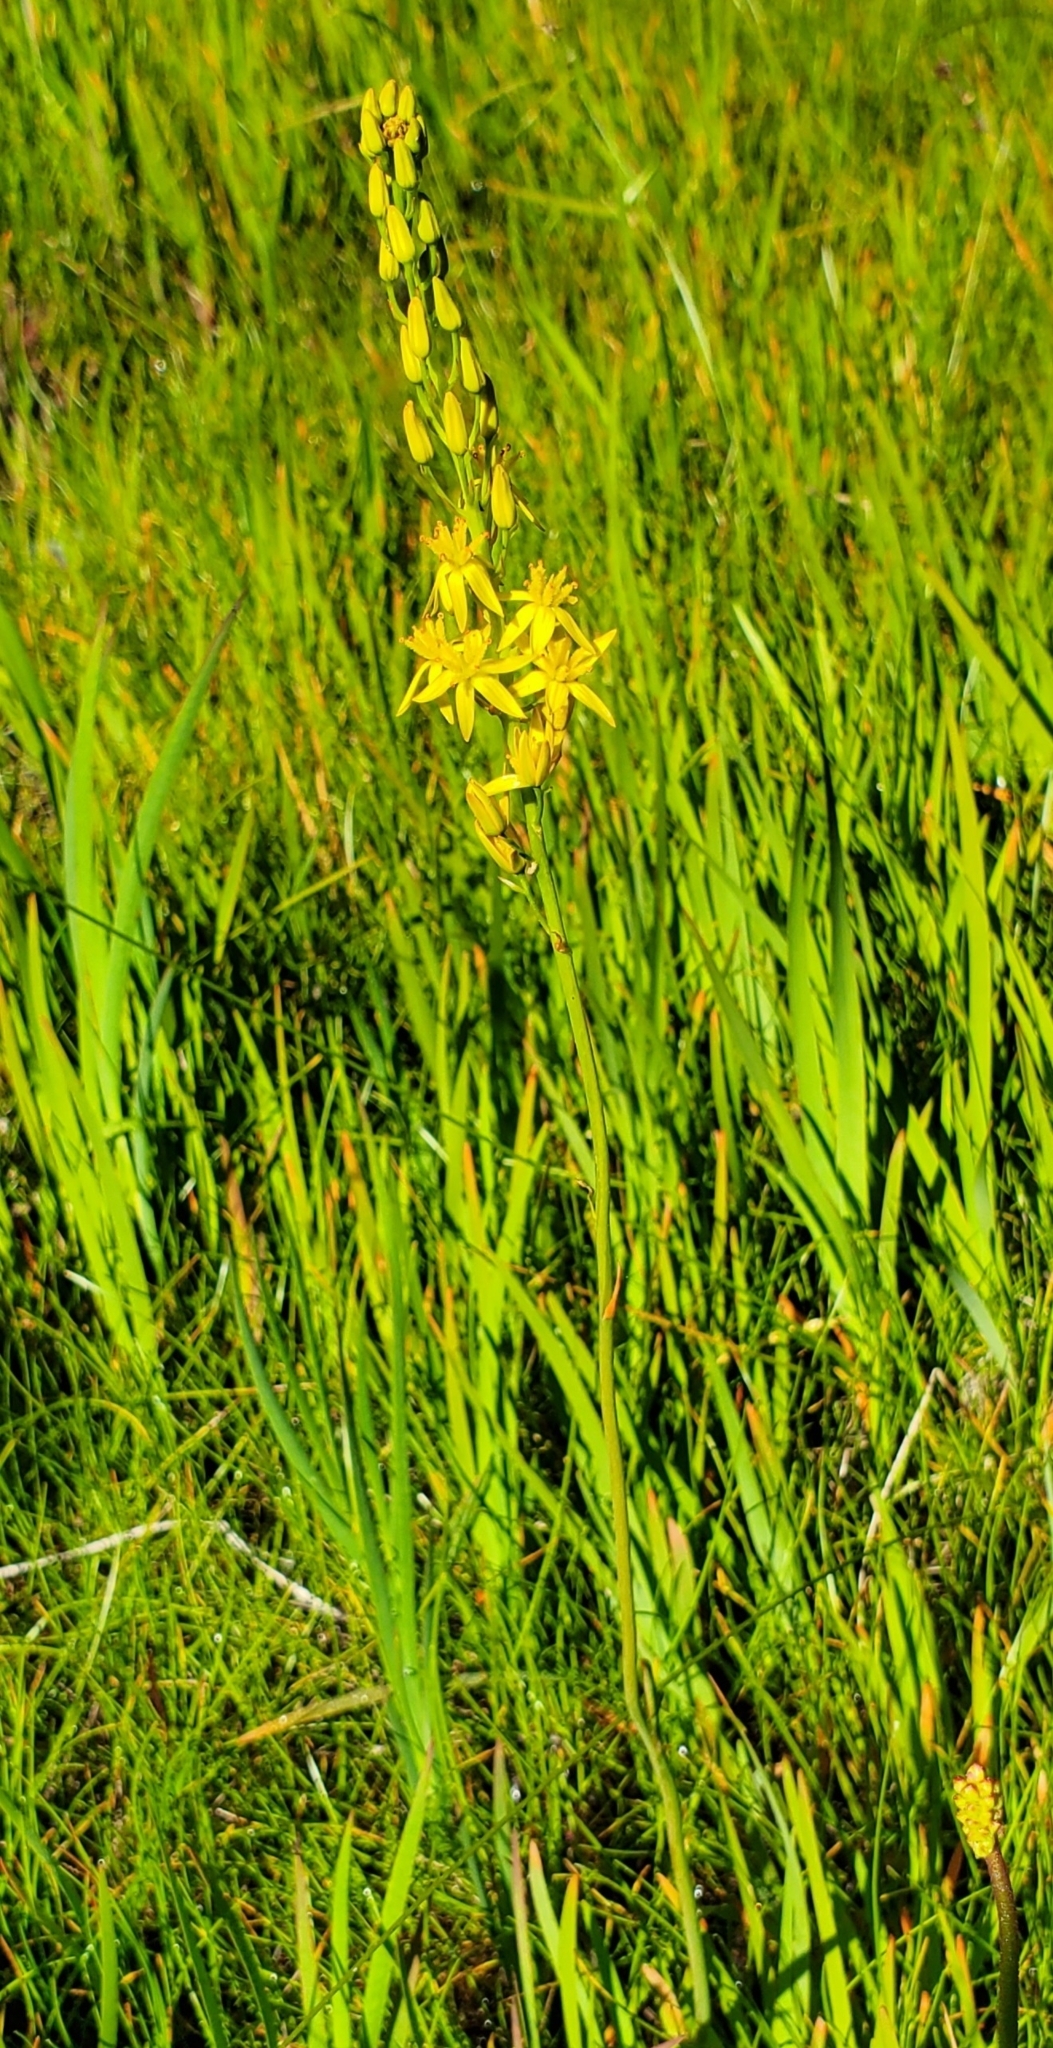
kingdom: Plantae
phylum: Tracheophyta
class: Liliopsida
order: Dioscoreales
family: Nartheciaceae
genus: Narthecium
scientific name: Narthecium californicum
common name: California bog-asphodel
